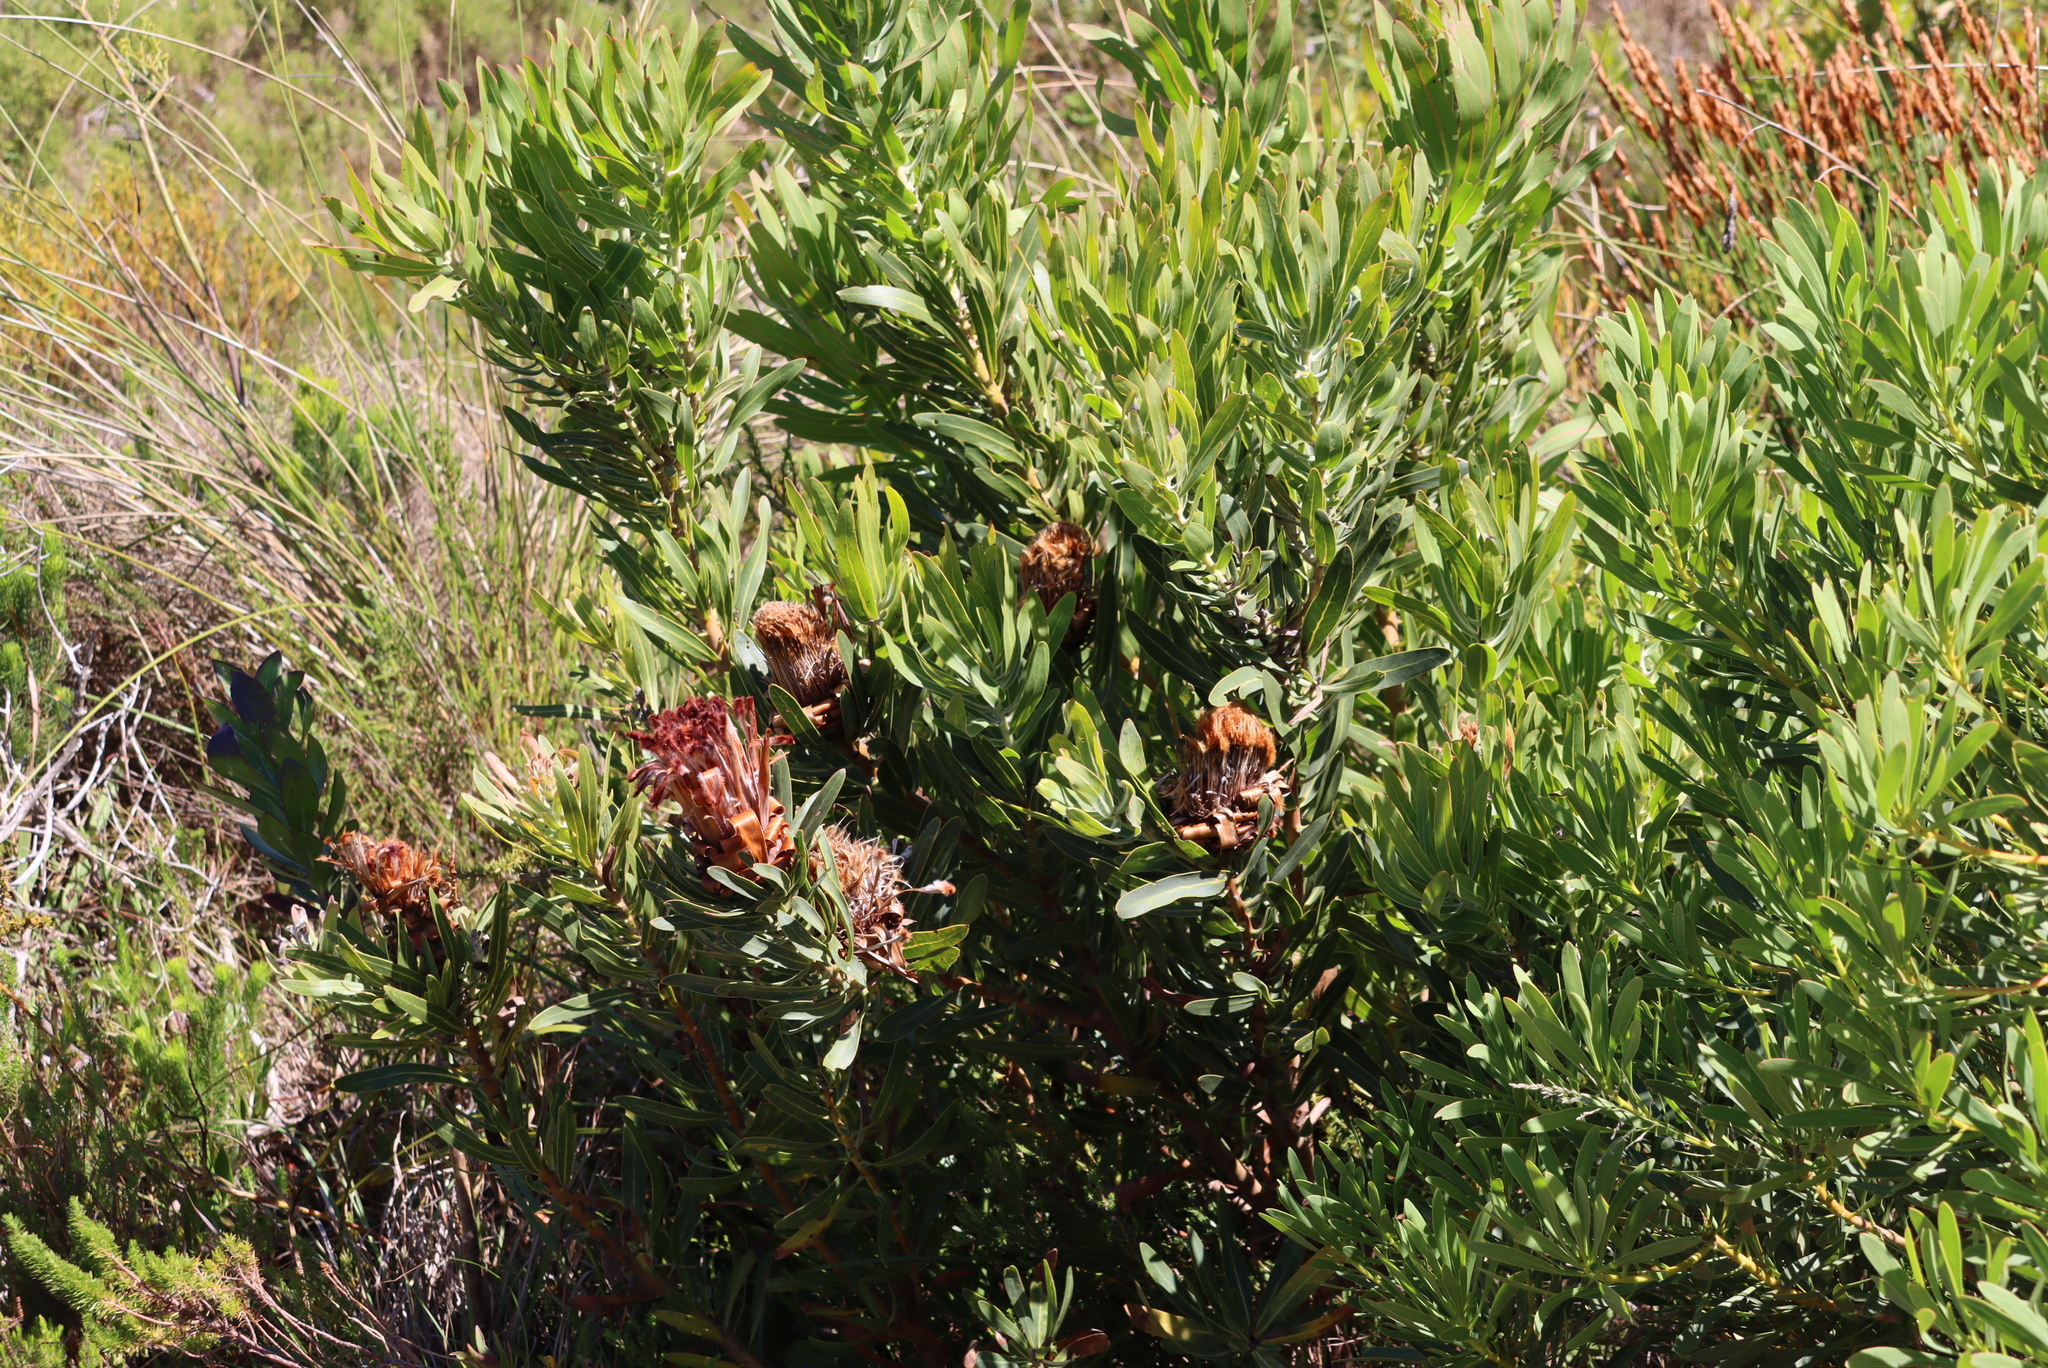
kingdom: Plantae
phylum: Tracheophyta
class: Magnoliopsida
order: Proteales
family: Proteaceae
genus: Protea
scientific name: Protea laurifolia
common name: Grey-leaf sugarbsh
